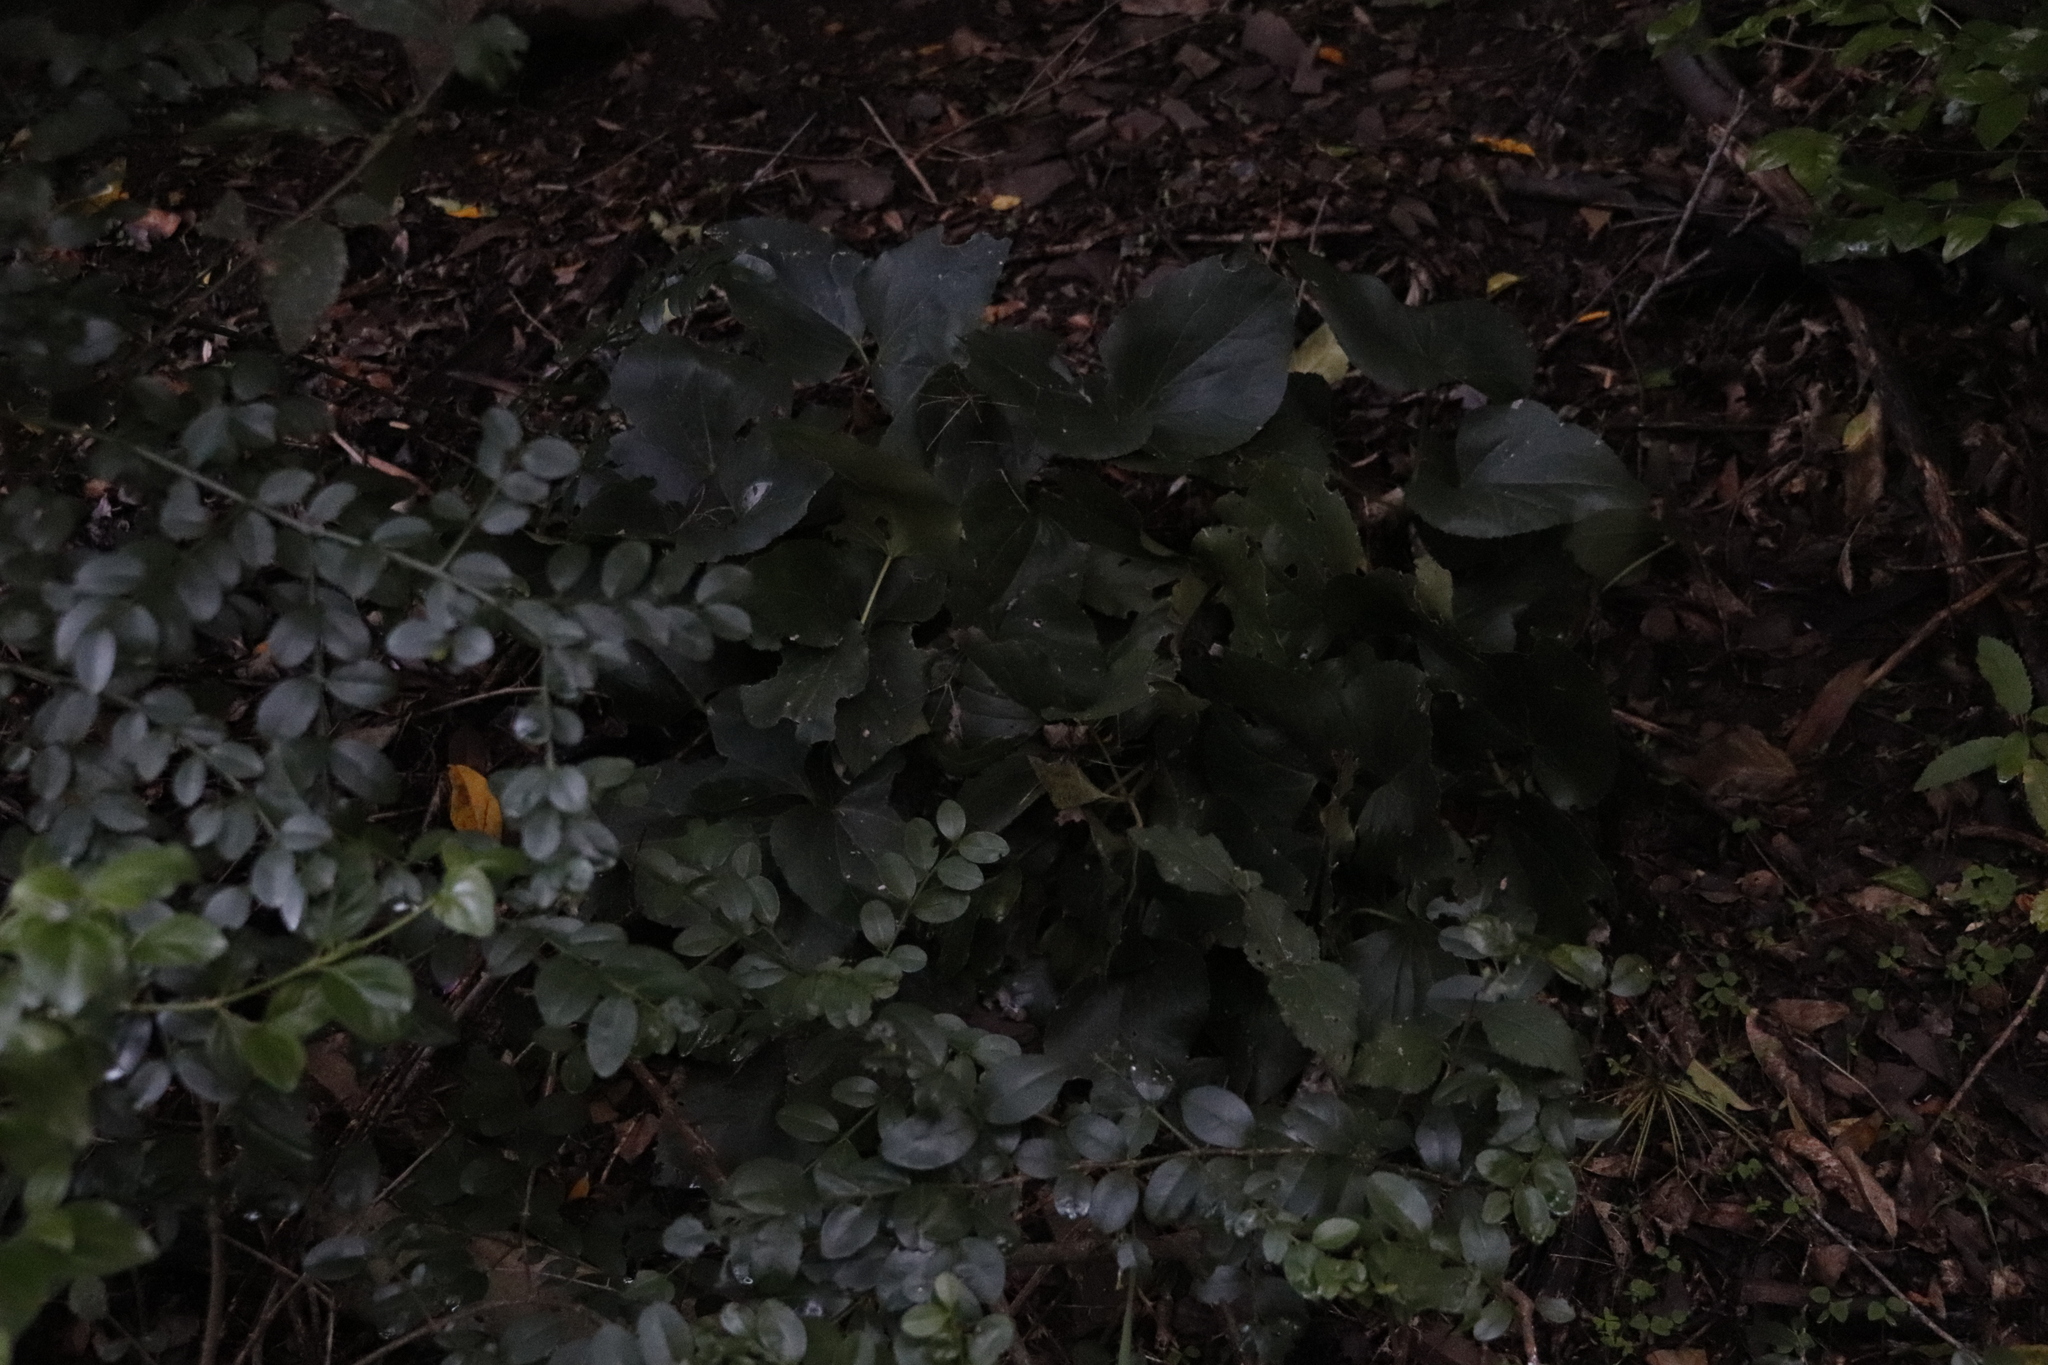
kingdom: Plantae
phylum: Tracheophyta
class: Magnoliopsida
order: Ranunculales
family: Ranunculaceae
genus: Knowltonia
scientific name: Knowltonia vesicatoria
